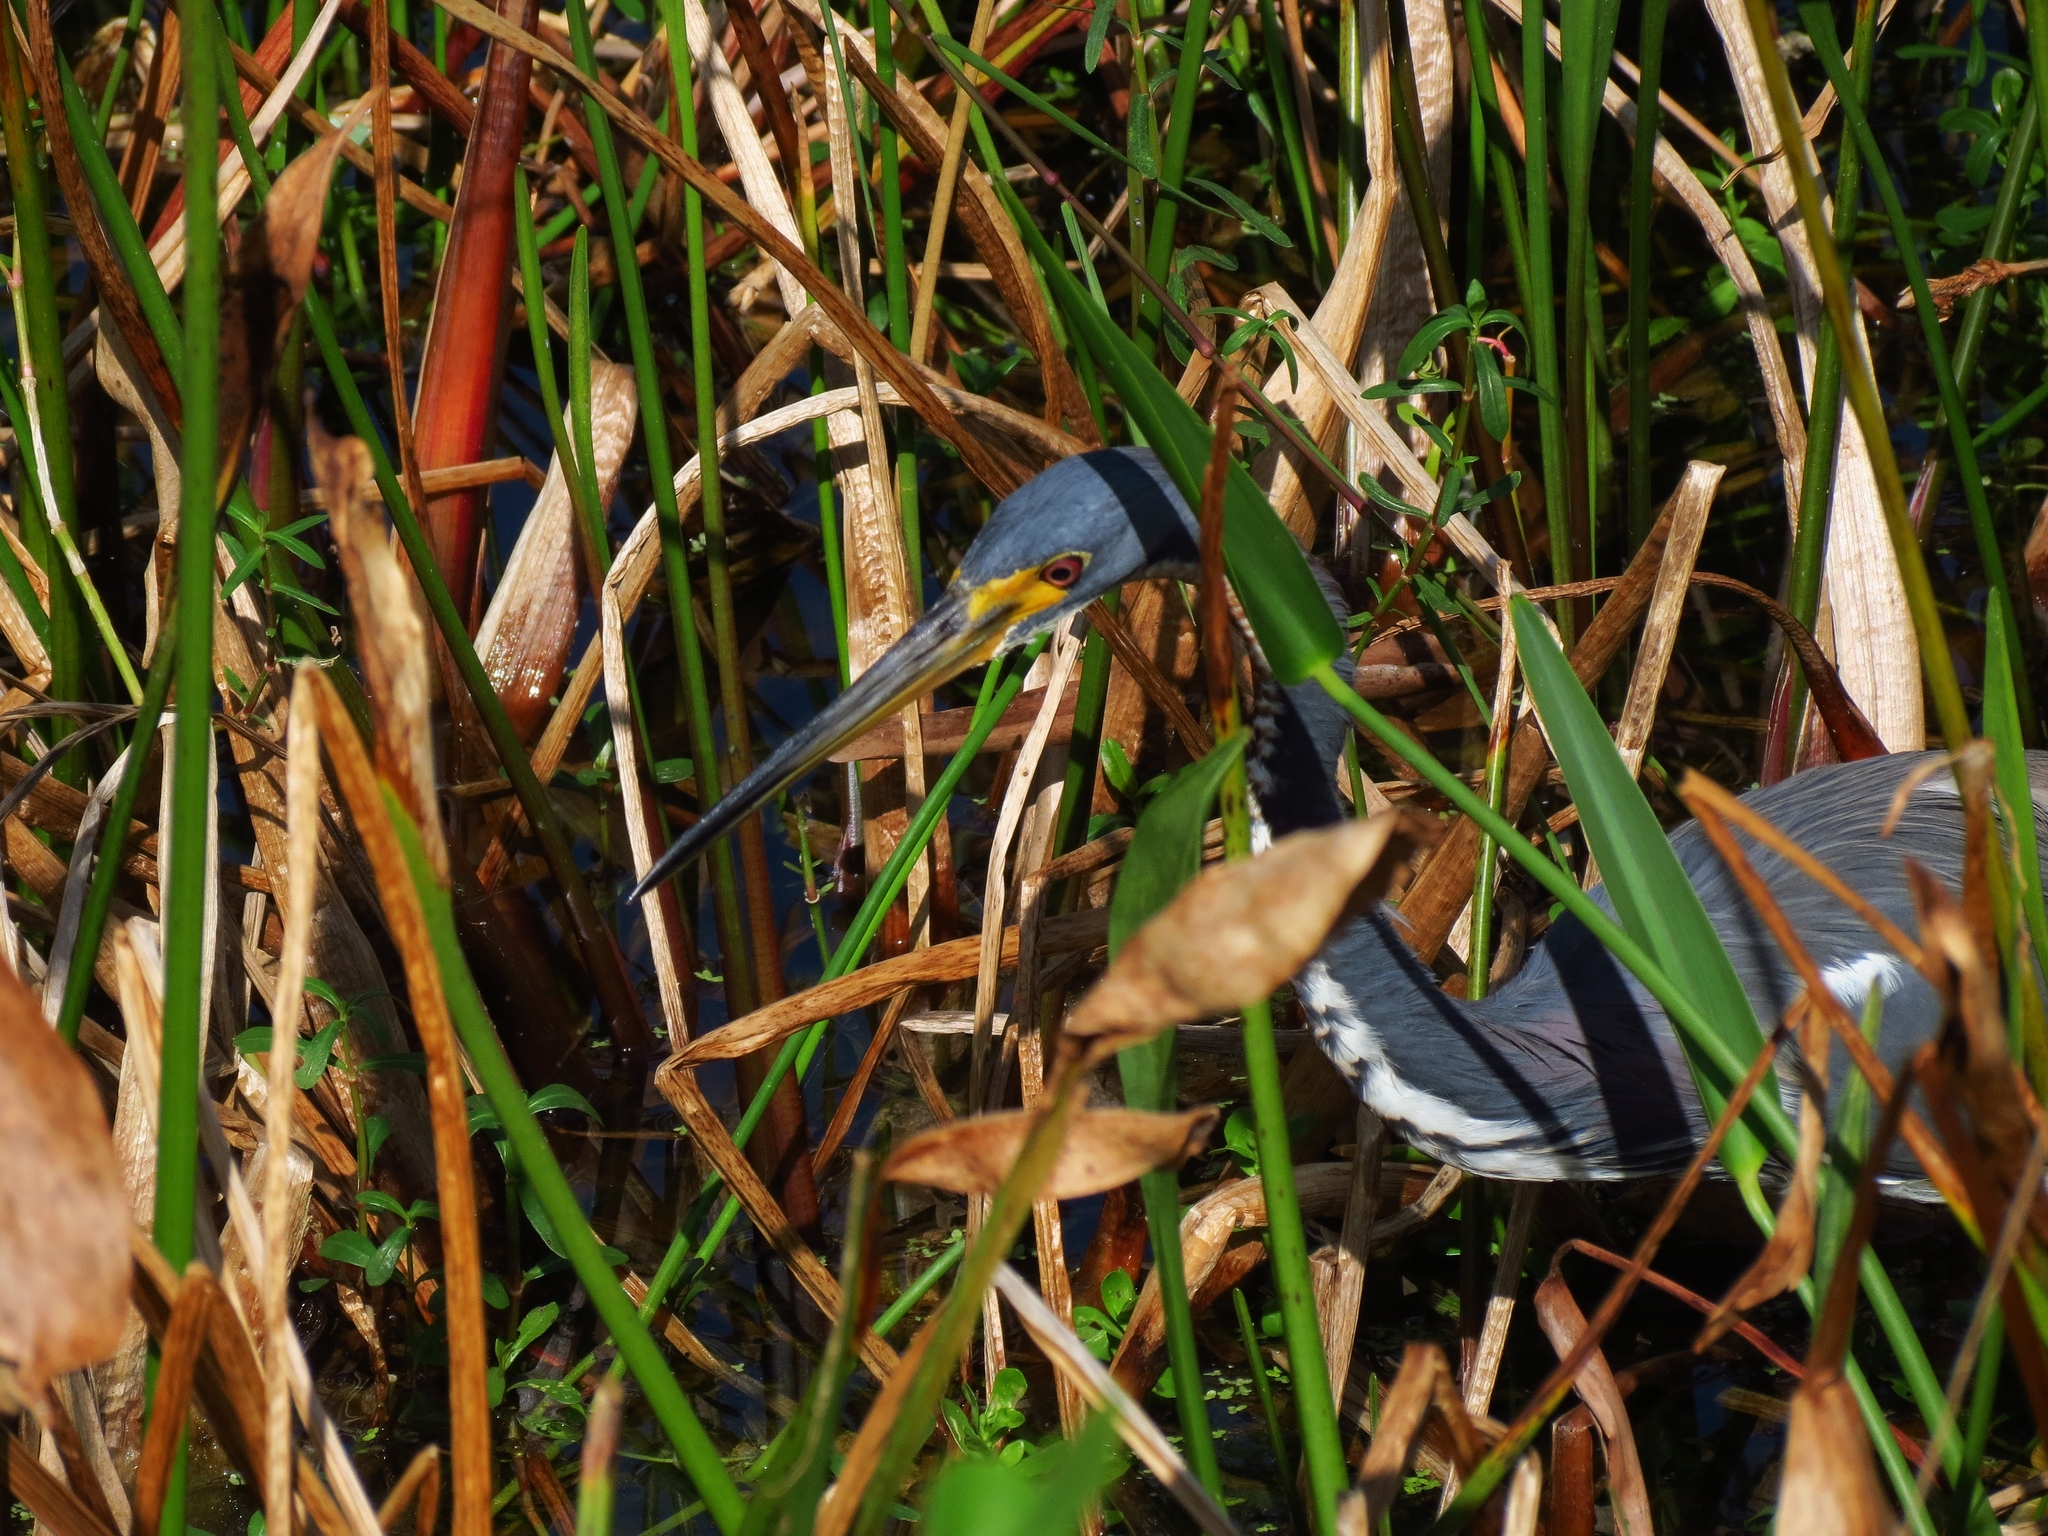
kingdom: Animalia
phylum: Chordata
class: Aves
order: Pelecaniformes
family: Ardeidae
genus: Egretta
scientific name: Egretta tricolor
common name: Tricolored heron
